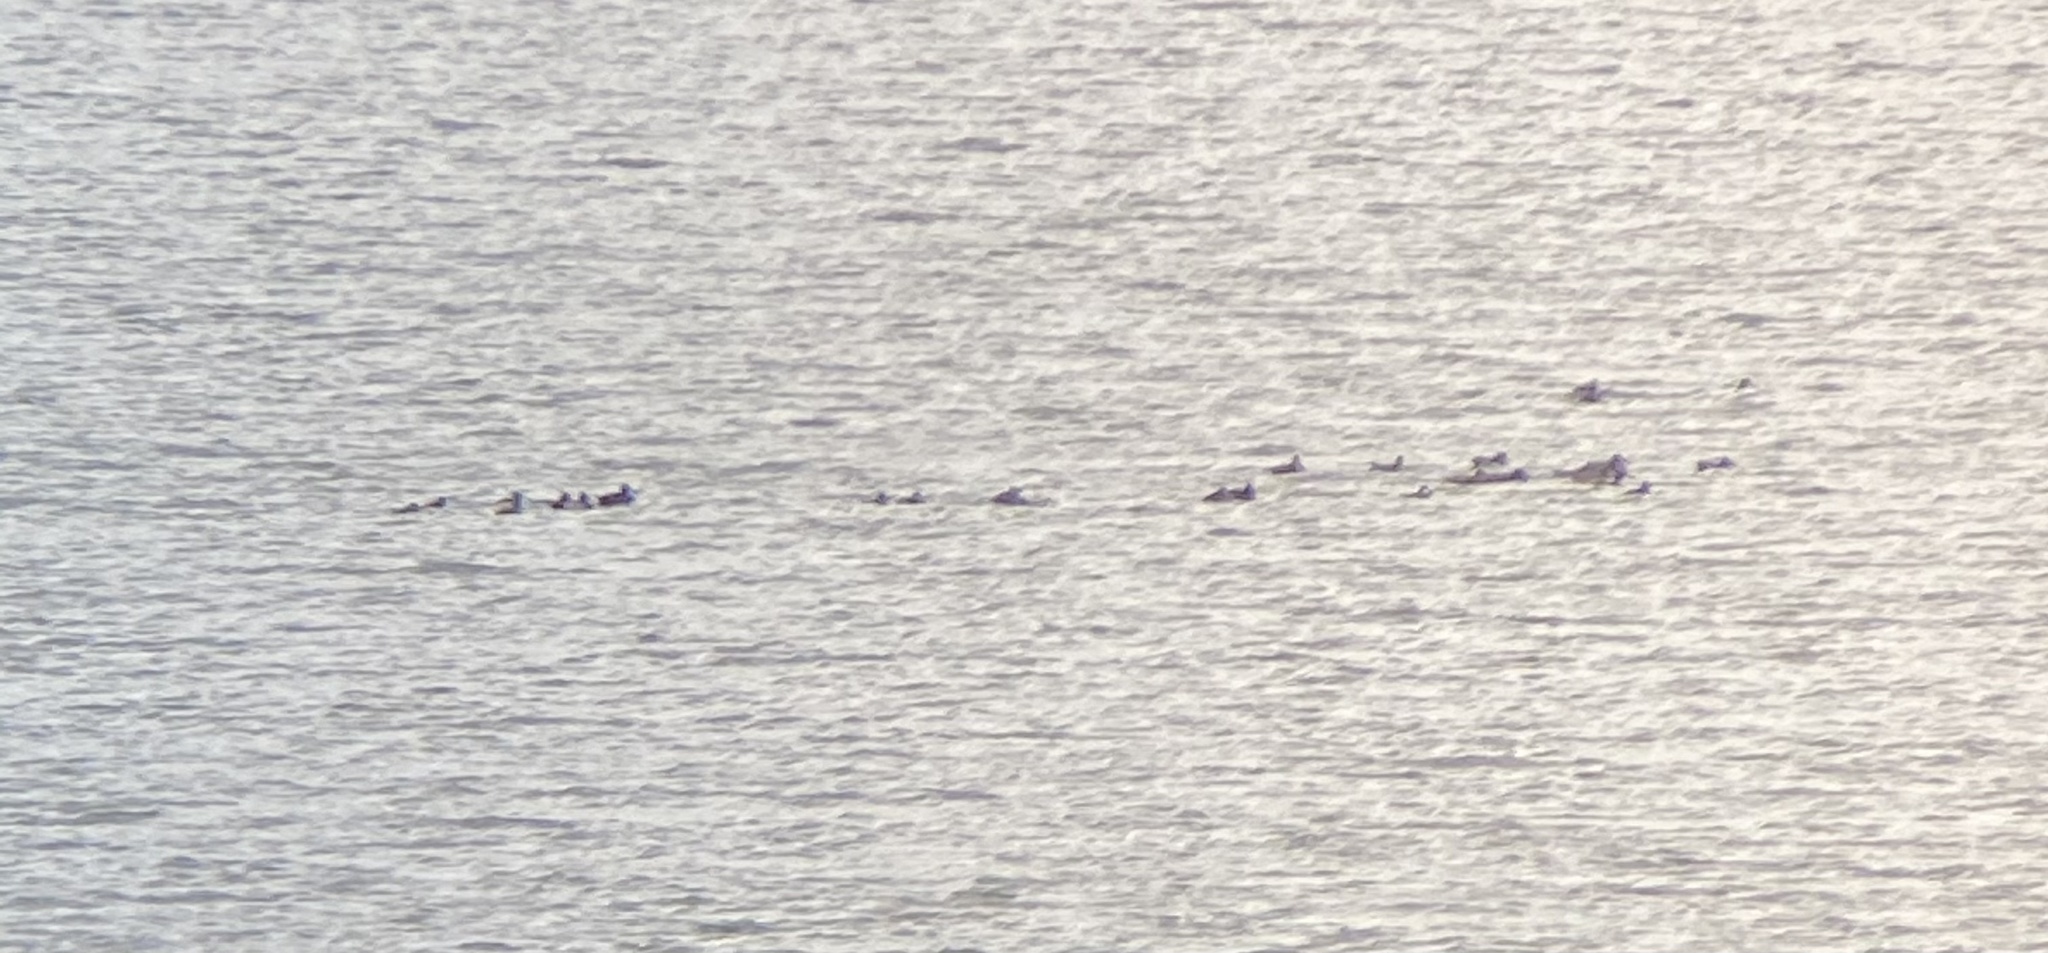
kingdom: Animalia
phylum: Chordata
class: Aves
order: Anseriformes
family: Anatidae
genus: Oxyura
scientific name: Oxyura jamaicensis
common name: Ruddy duck
